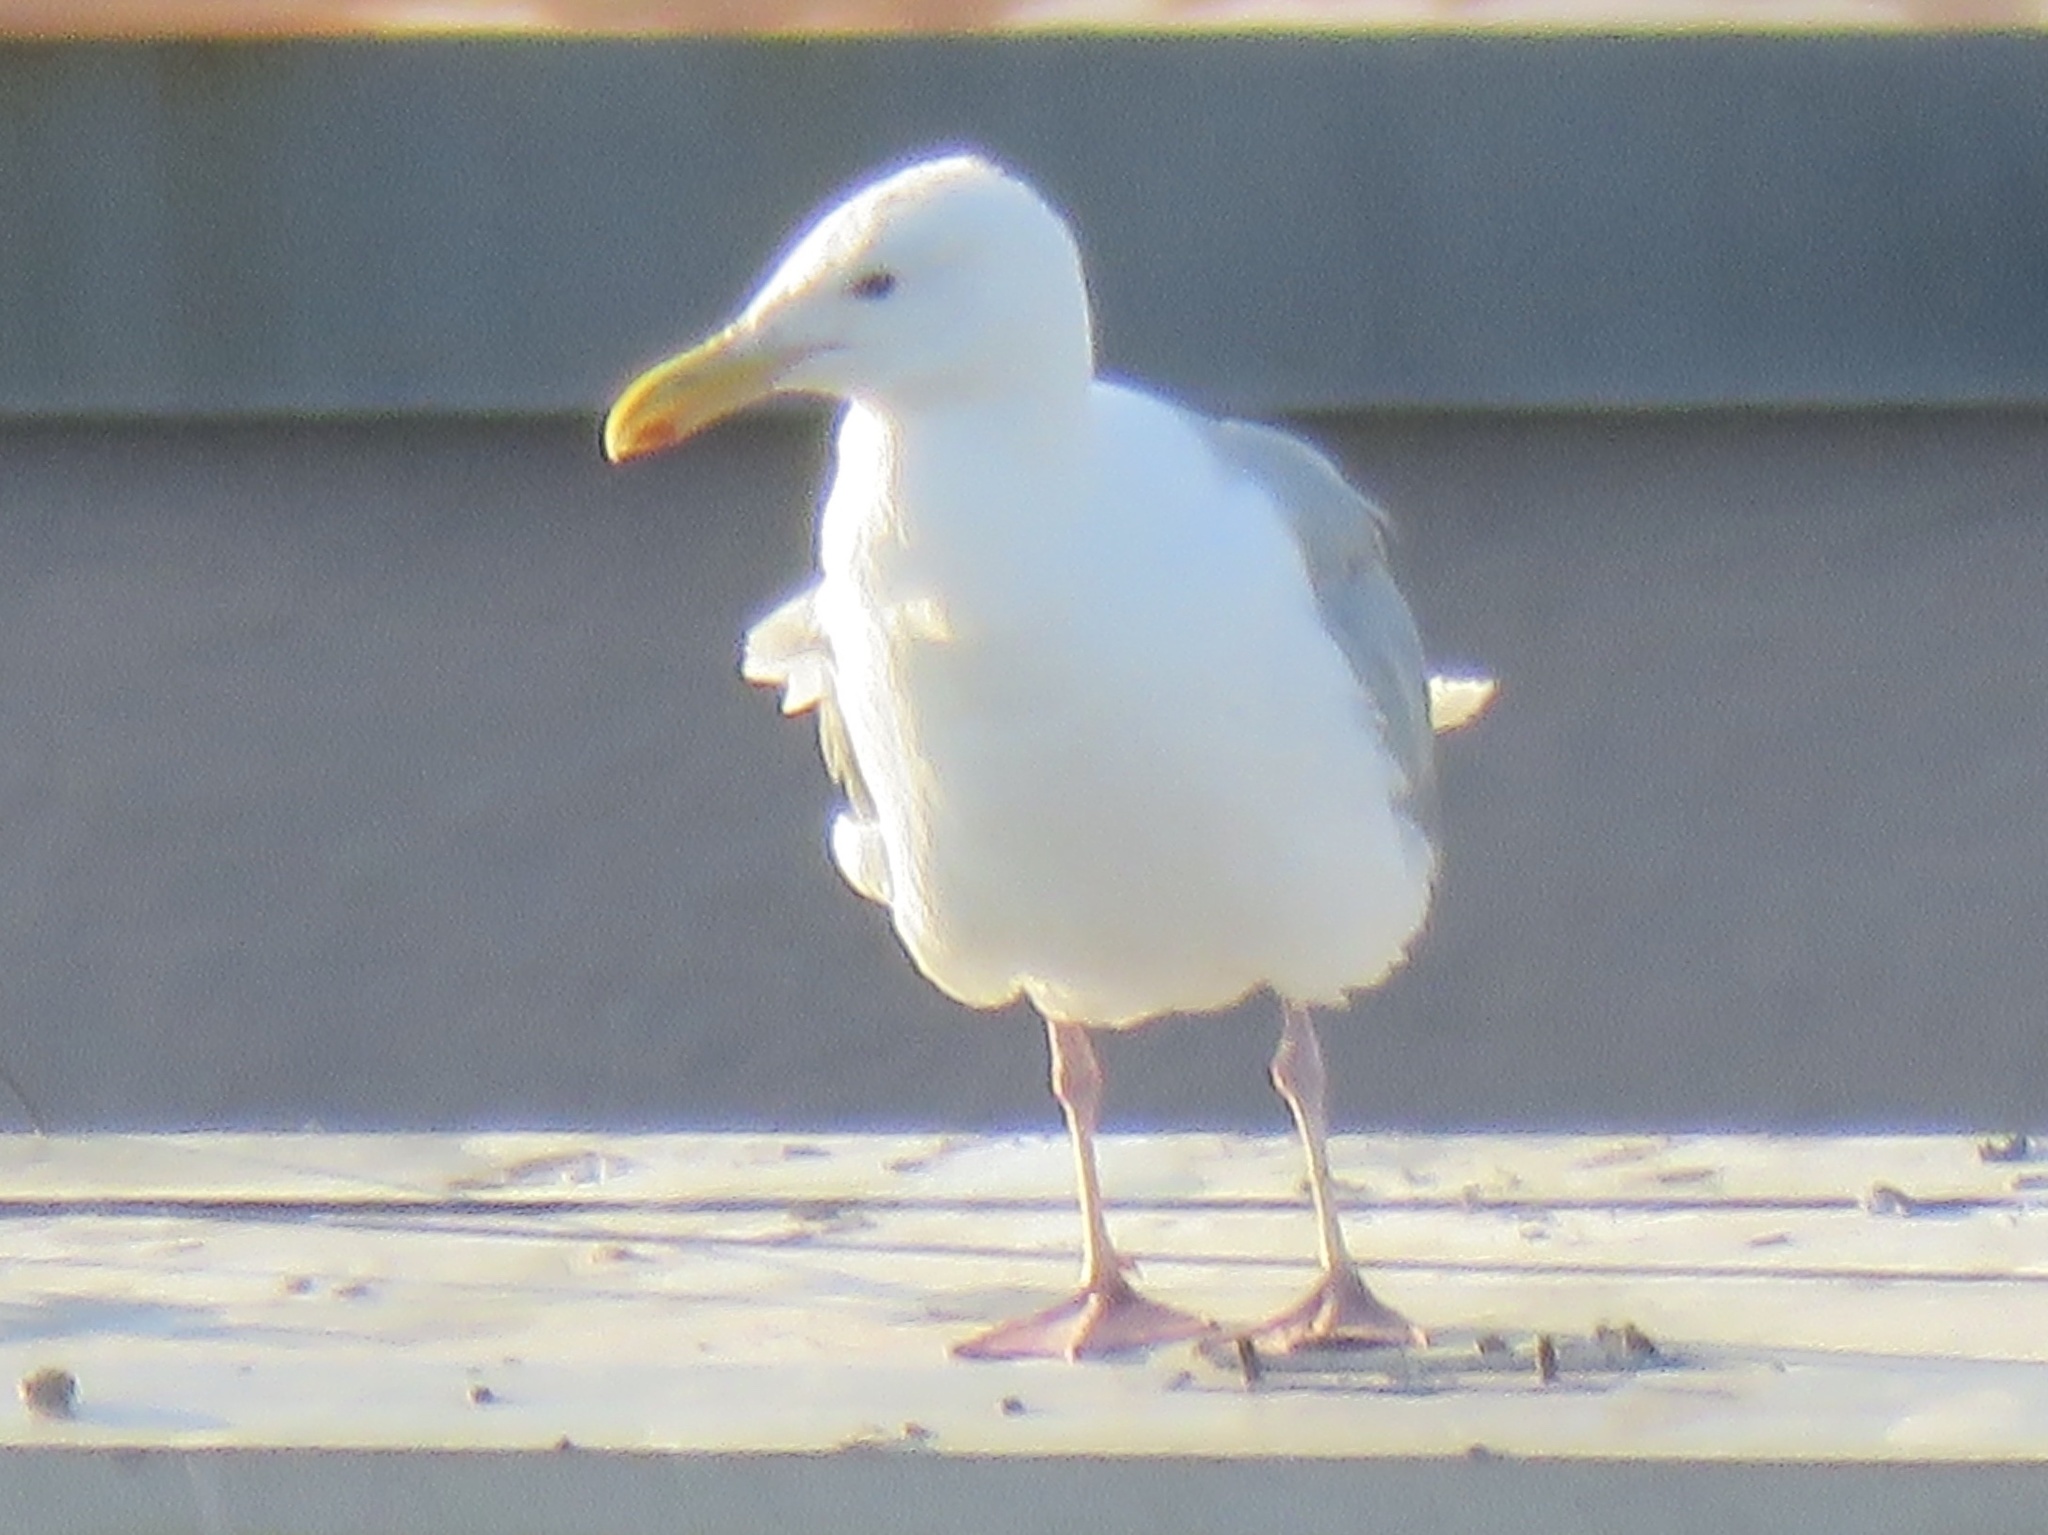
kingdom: Animalia
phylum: Chordata
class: Aves
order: Charadriiformes
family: Laridae
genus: Larus
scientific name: Larus glaucescens
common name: Glaucous-winged gull
